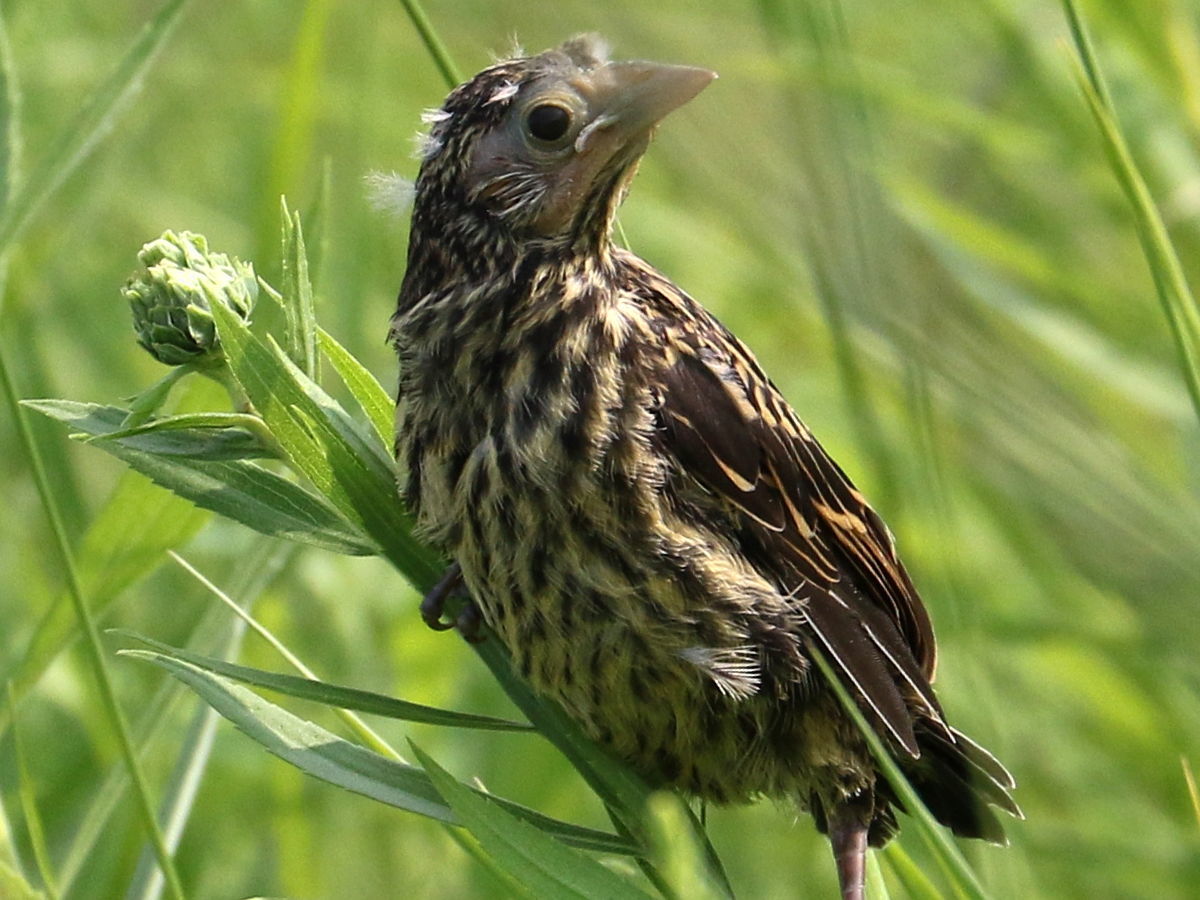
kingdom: Animalia
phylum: Chordata
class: Aves
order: Passeriformes
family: Icteridae
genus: Agelaius
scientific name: Agelaius phoeniceus
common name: Red-winged blackbird
